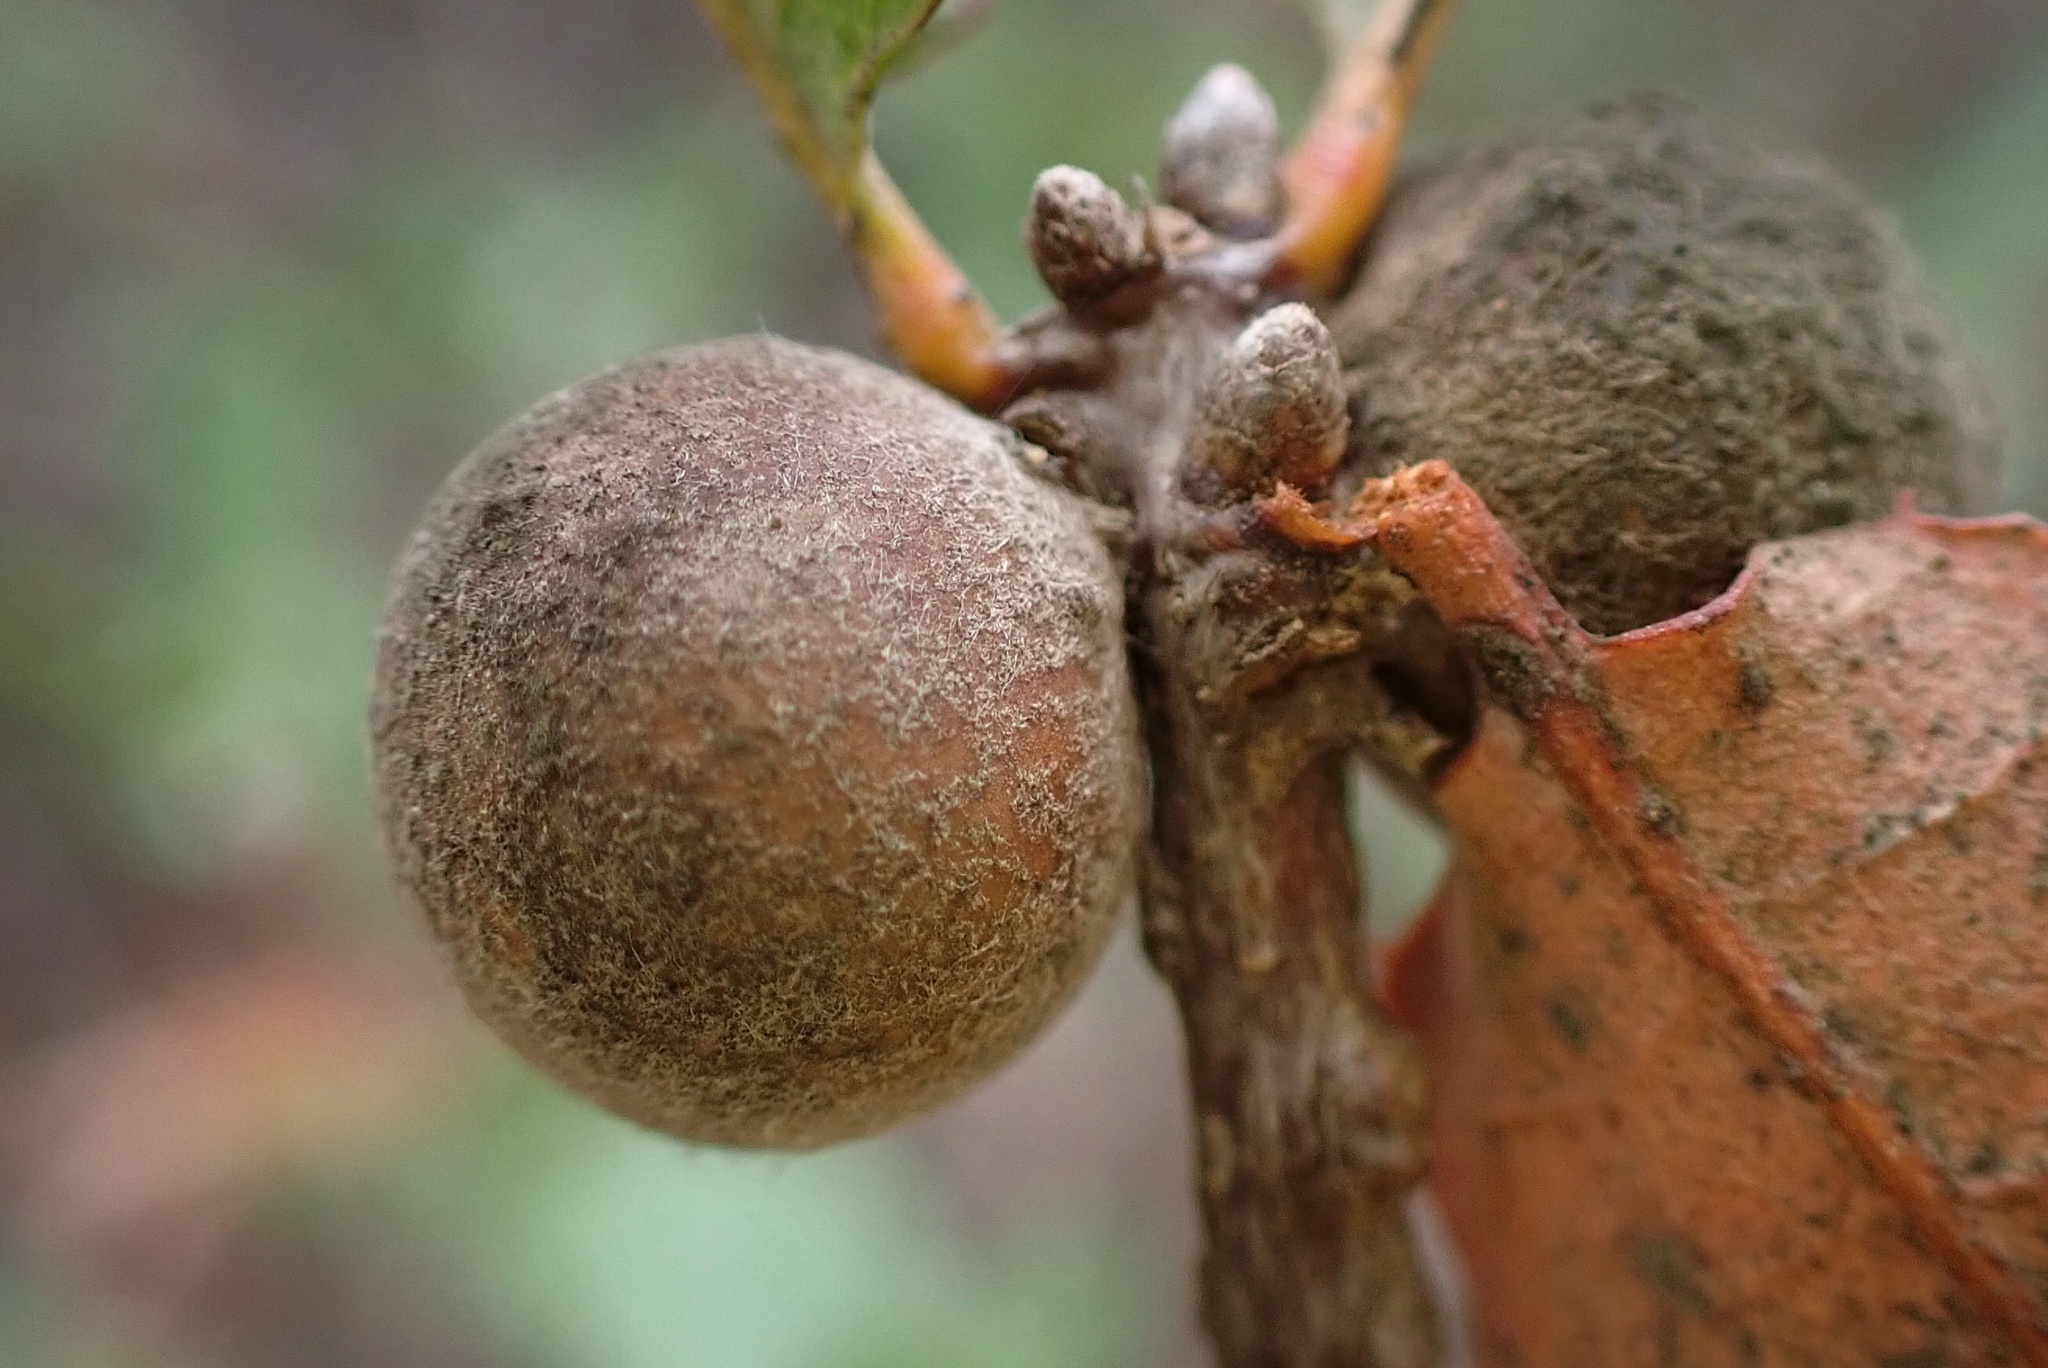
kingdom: Animalia
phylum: Arthropoda
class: Insecta
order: Hymenoptera
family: Cynipidae
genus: Burnettweldia
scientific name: Burnettweldia
